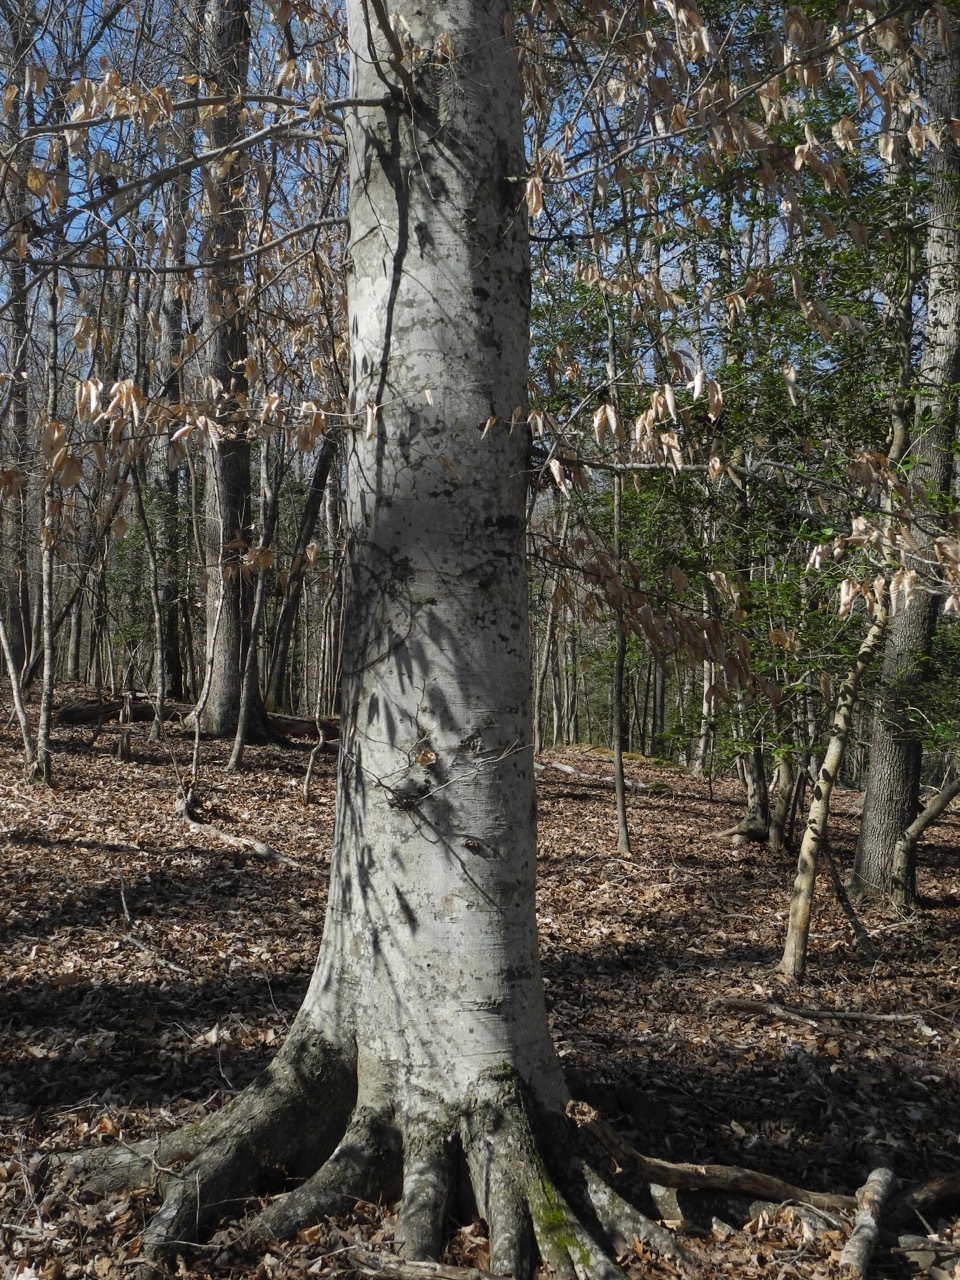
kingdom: Plantae
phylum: Tracheophyta
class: Magnoliopsida
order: Fagales
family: Fagaceae
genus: Fagus
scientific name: Fagus grandifolia
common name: American beech
